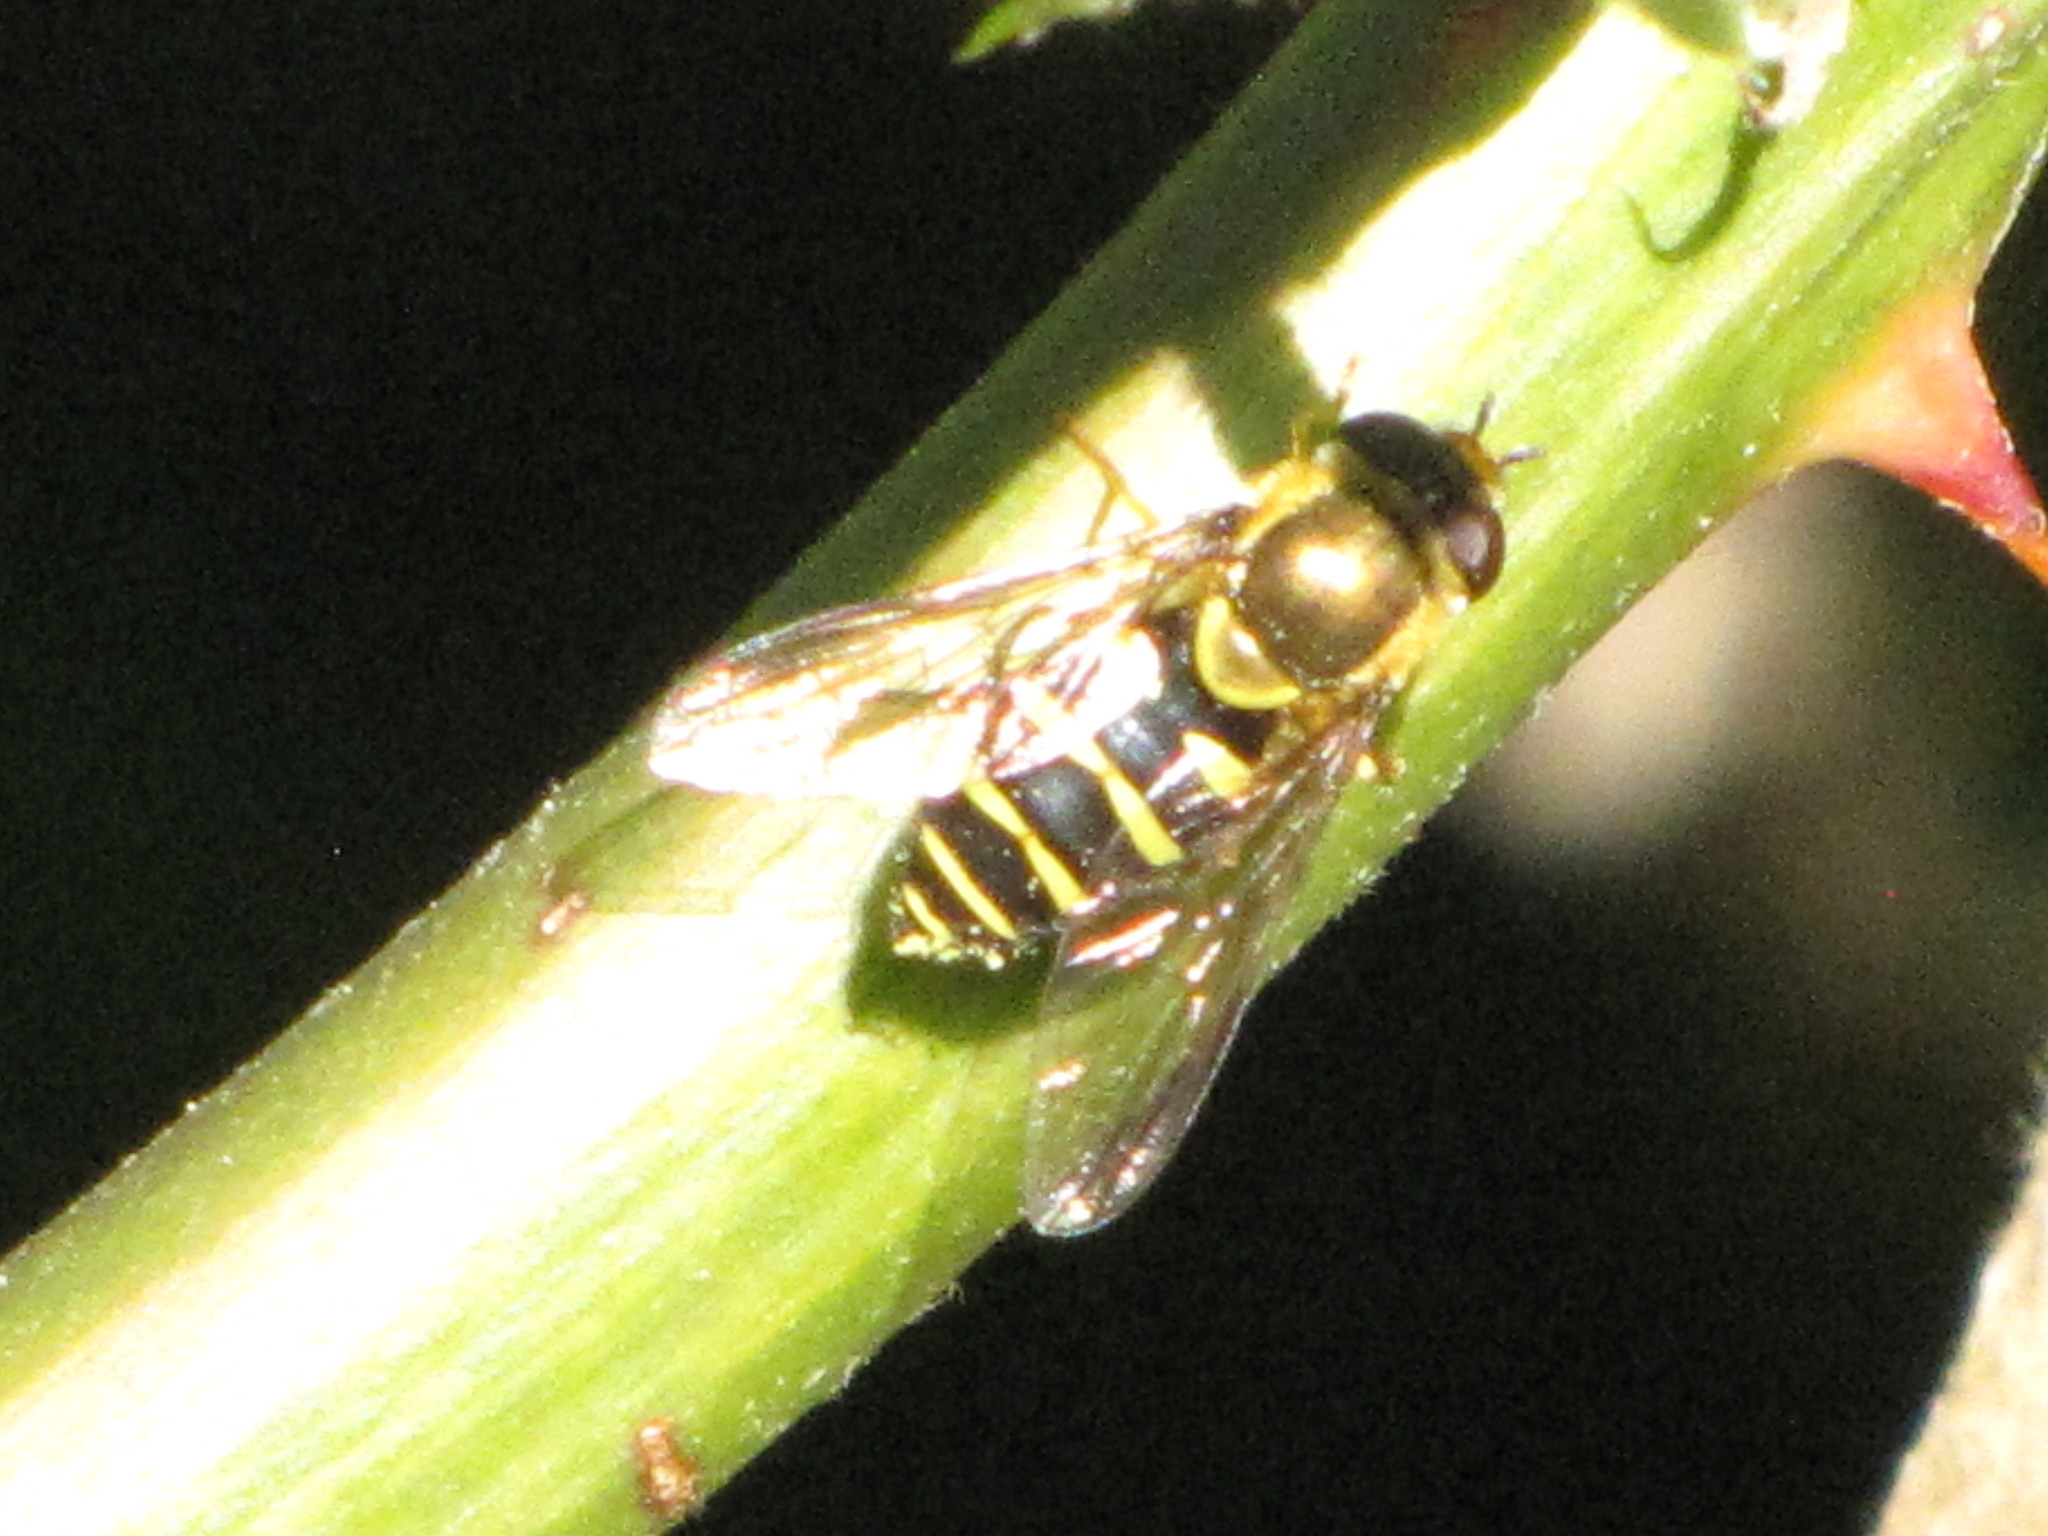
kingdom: Animalia
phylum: Arthropoda
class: Insecta
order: Diptera
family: Syrphidae
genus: Syrphus
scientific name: Syrphus opinator
